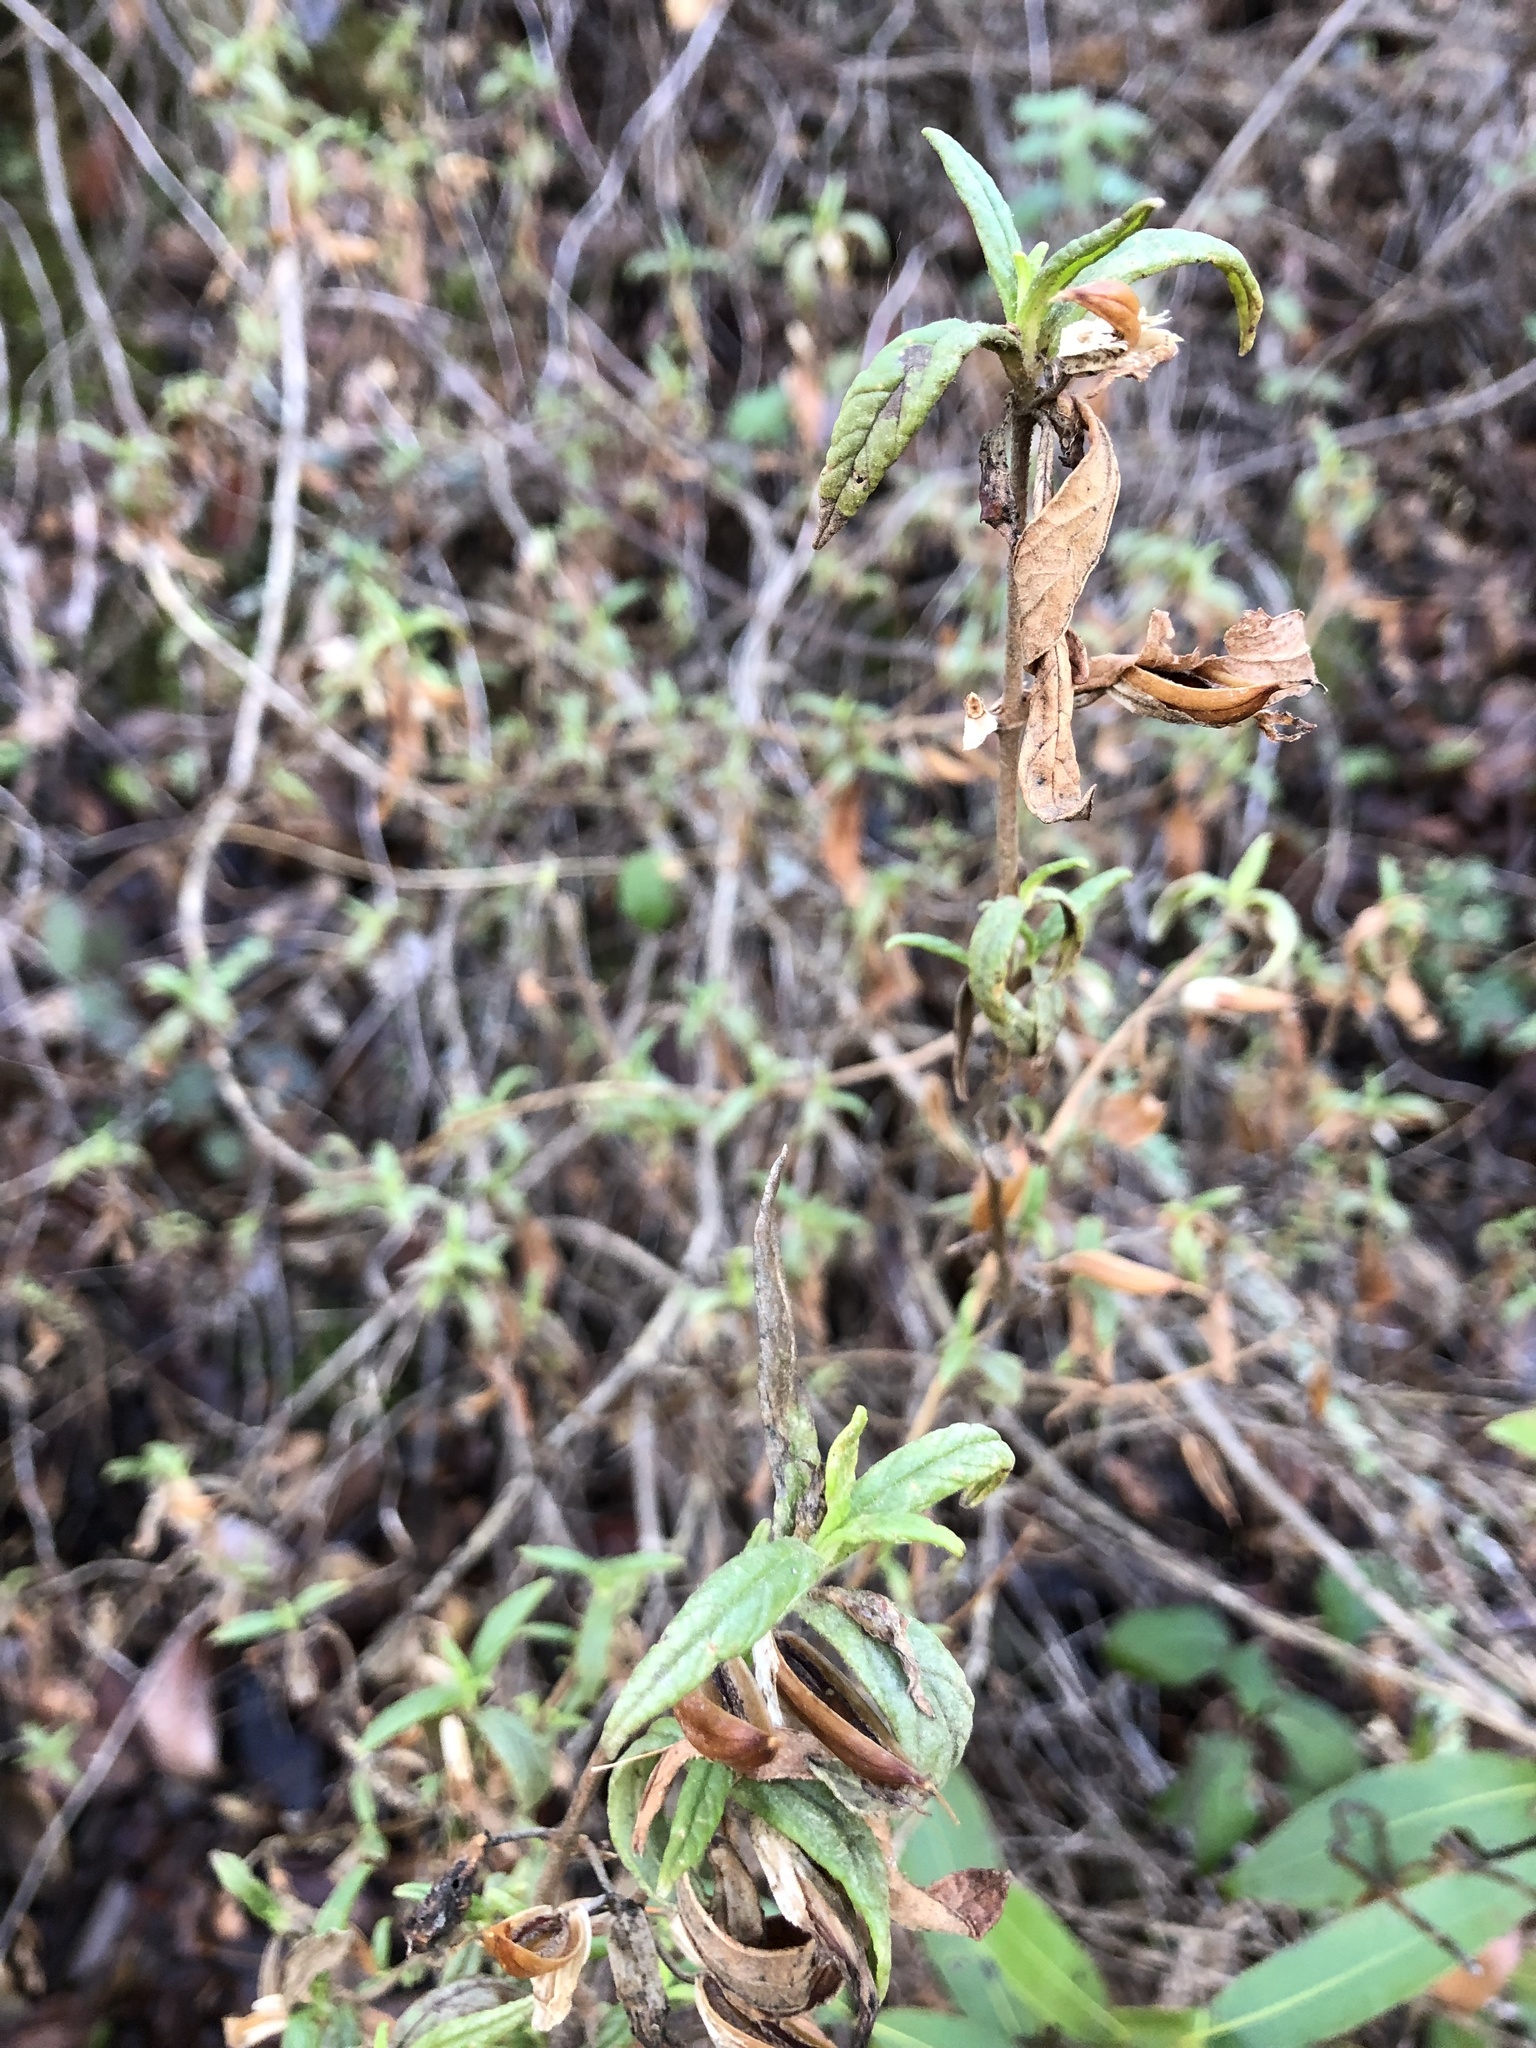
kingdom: Plantae
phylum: Tracheophyta
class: Magnoliopsida
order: Lamiales
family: Phrymaceae
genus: Diplacus
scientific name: Diplacus aurantiacus
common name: Bush monkey-flower
